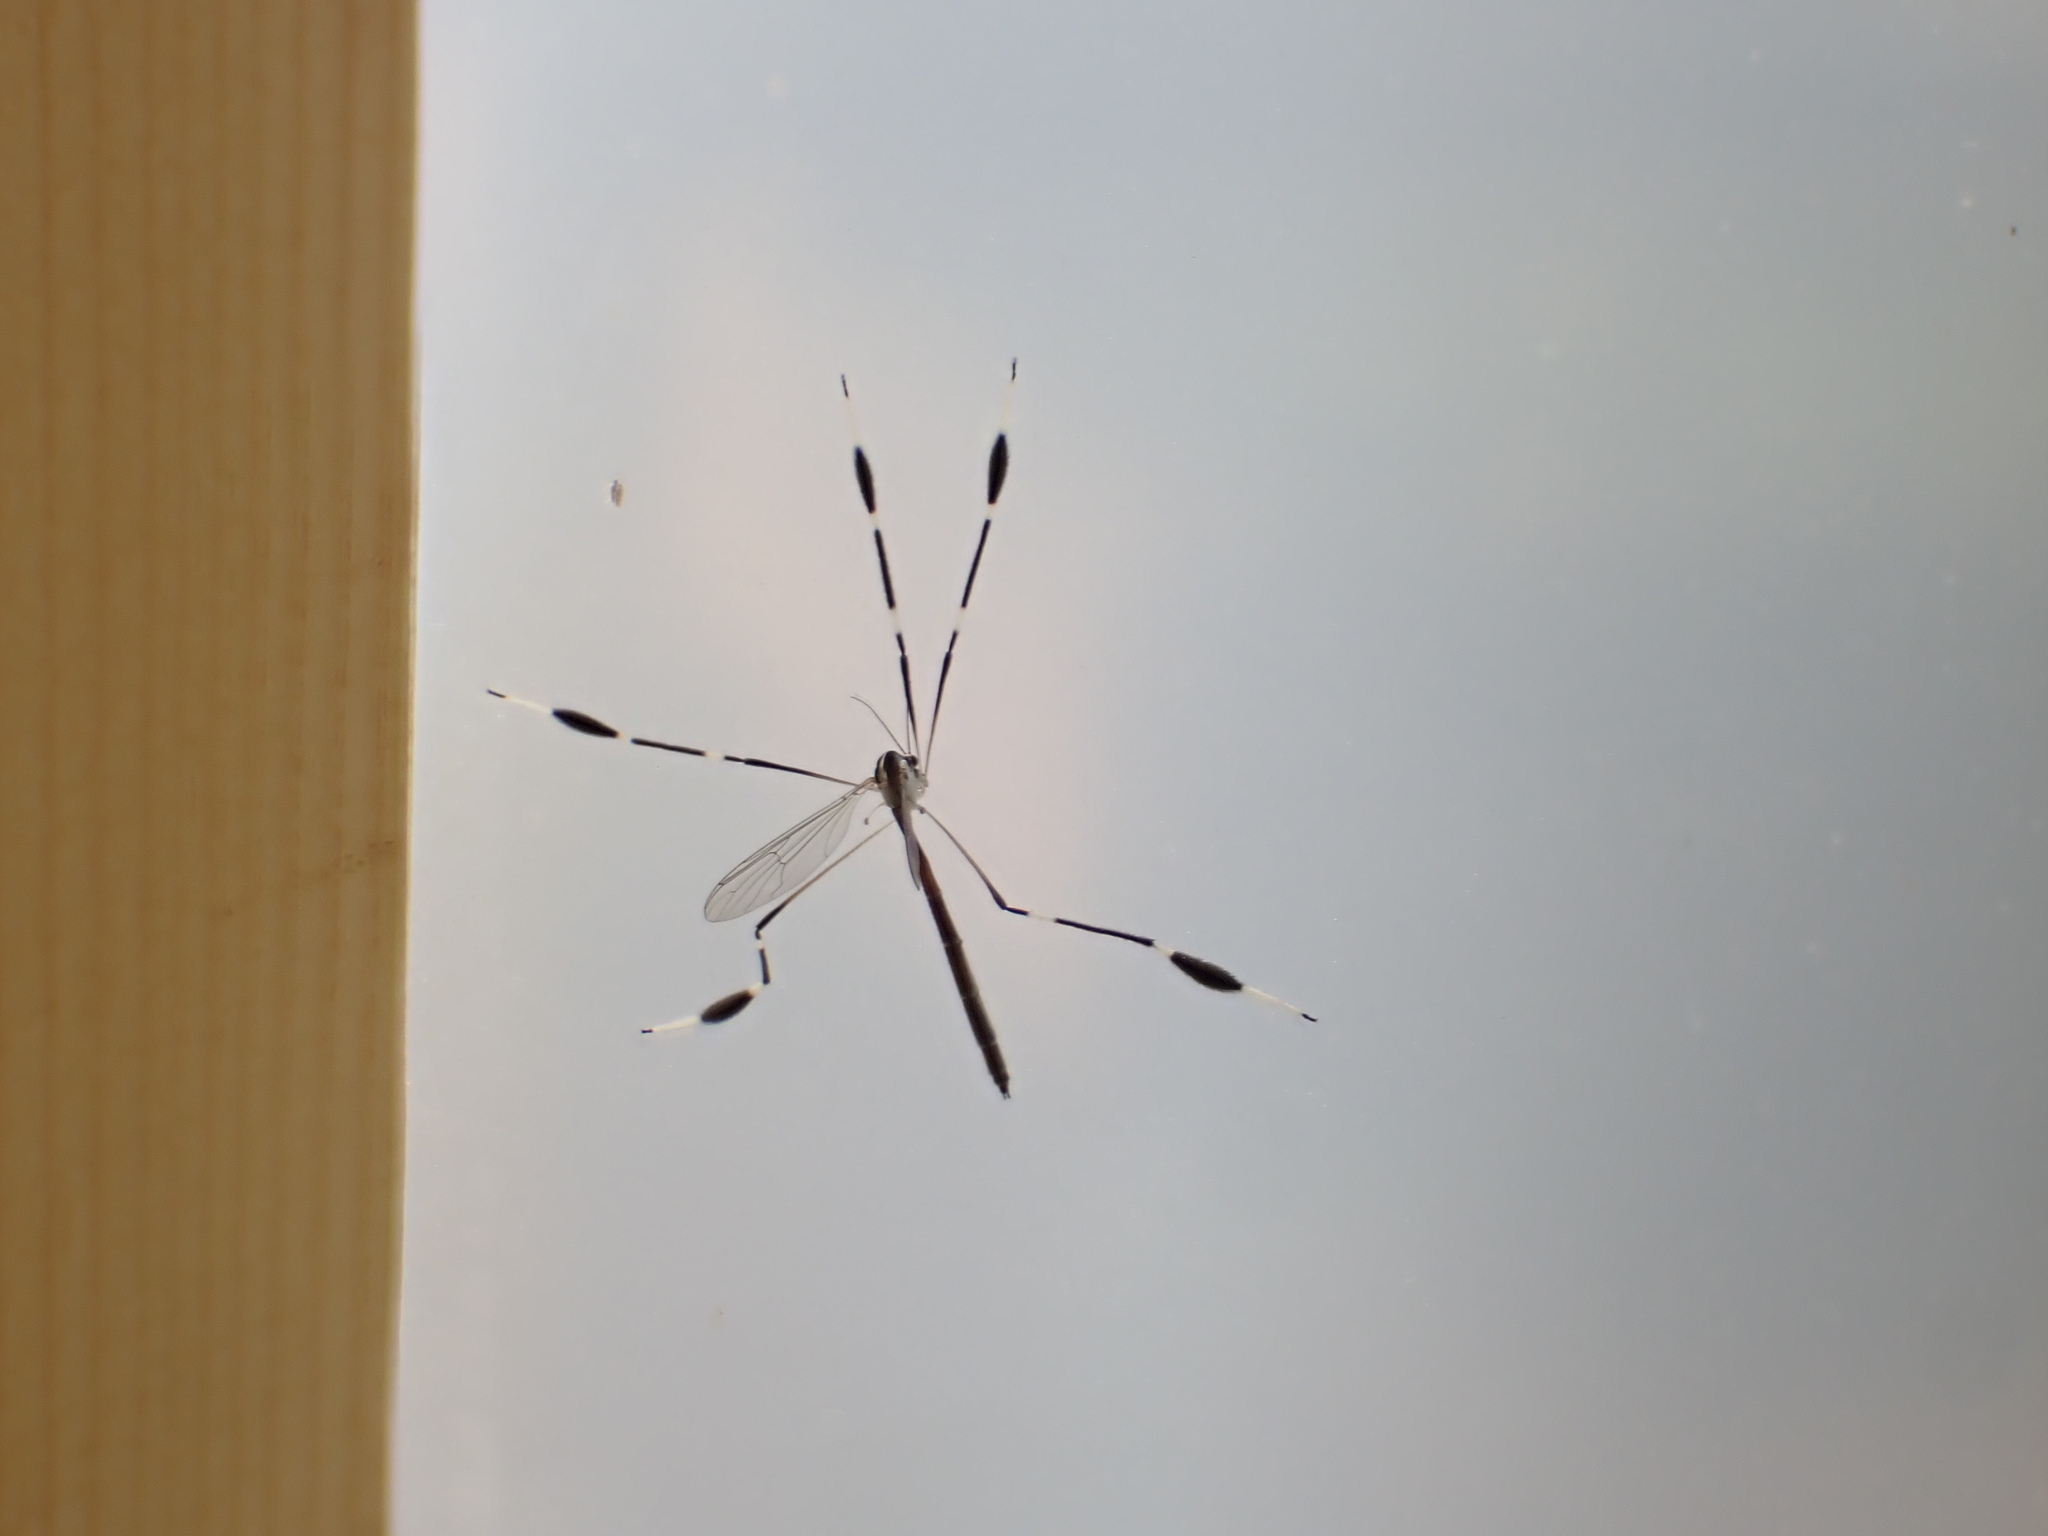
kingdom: Animalia
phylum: Arthropoda
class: Insecta
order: Diptera
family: Ptychopteridae
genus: Bittacomorpha
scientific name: Bittacomorpha clavipes
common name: Eastern phantom crane fly
